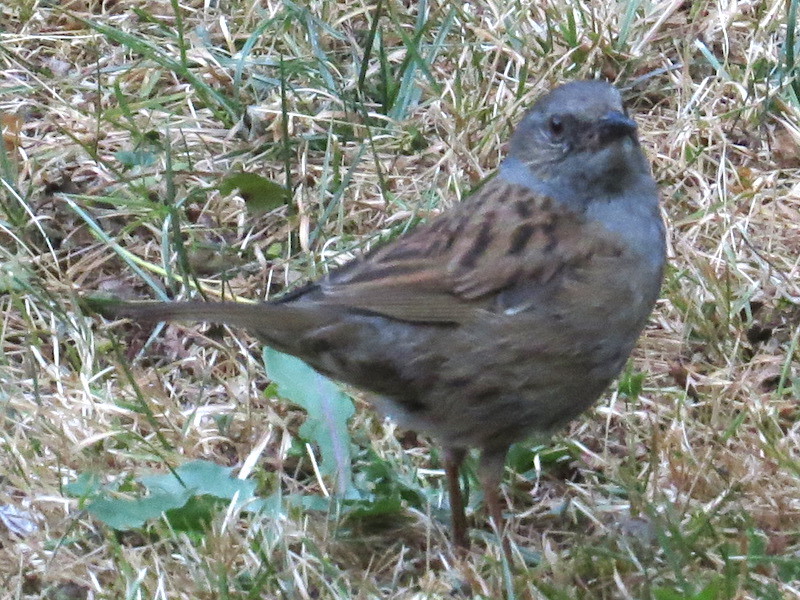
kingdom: Animalia
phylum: Chordata
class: Aves
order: Passeriformes
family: Prunellidae
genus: Prunella
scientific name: Prunella modularis
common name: Dunnock
